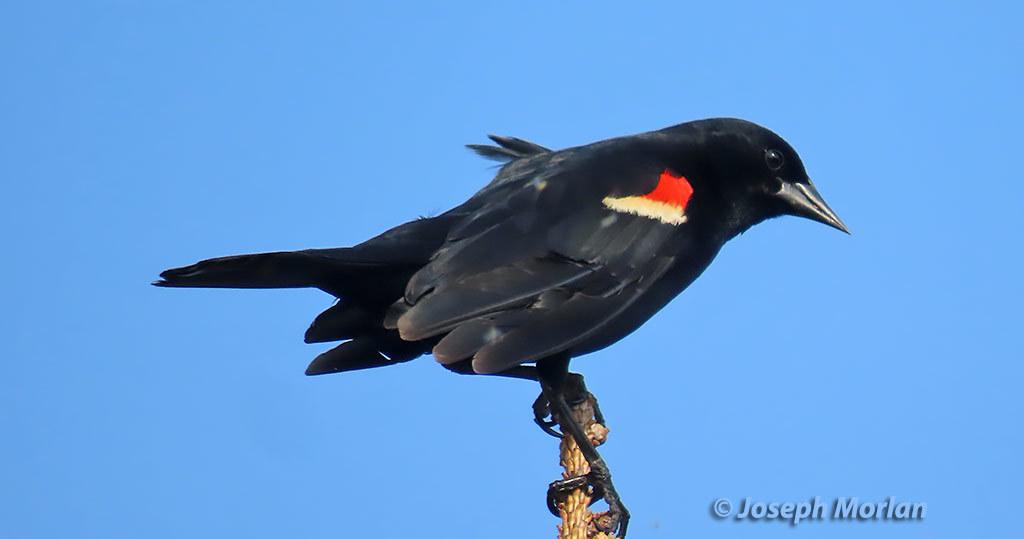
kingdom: Animalia
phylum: Chordata
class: Aves
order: Passeriformes
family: Icteridae
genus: Agelaius
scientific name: Agelaius phoeniceus
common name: Red-winged blackbird
